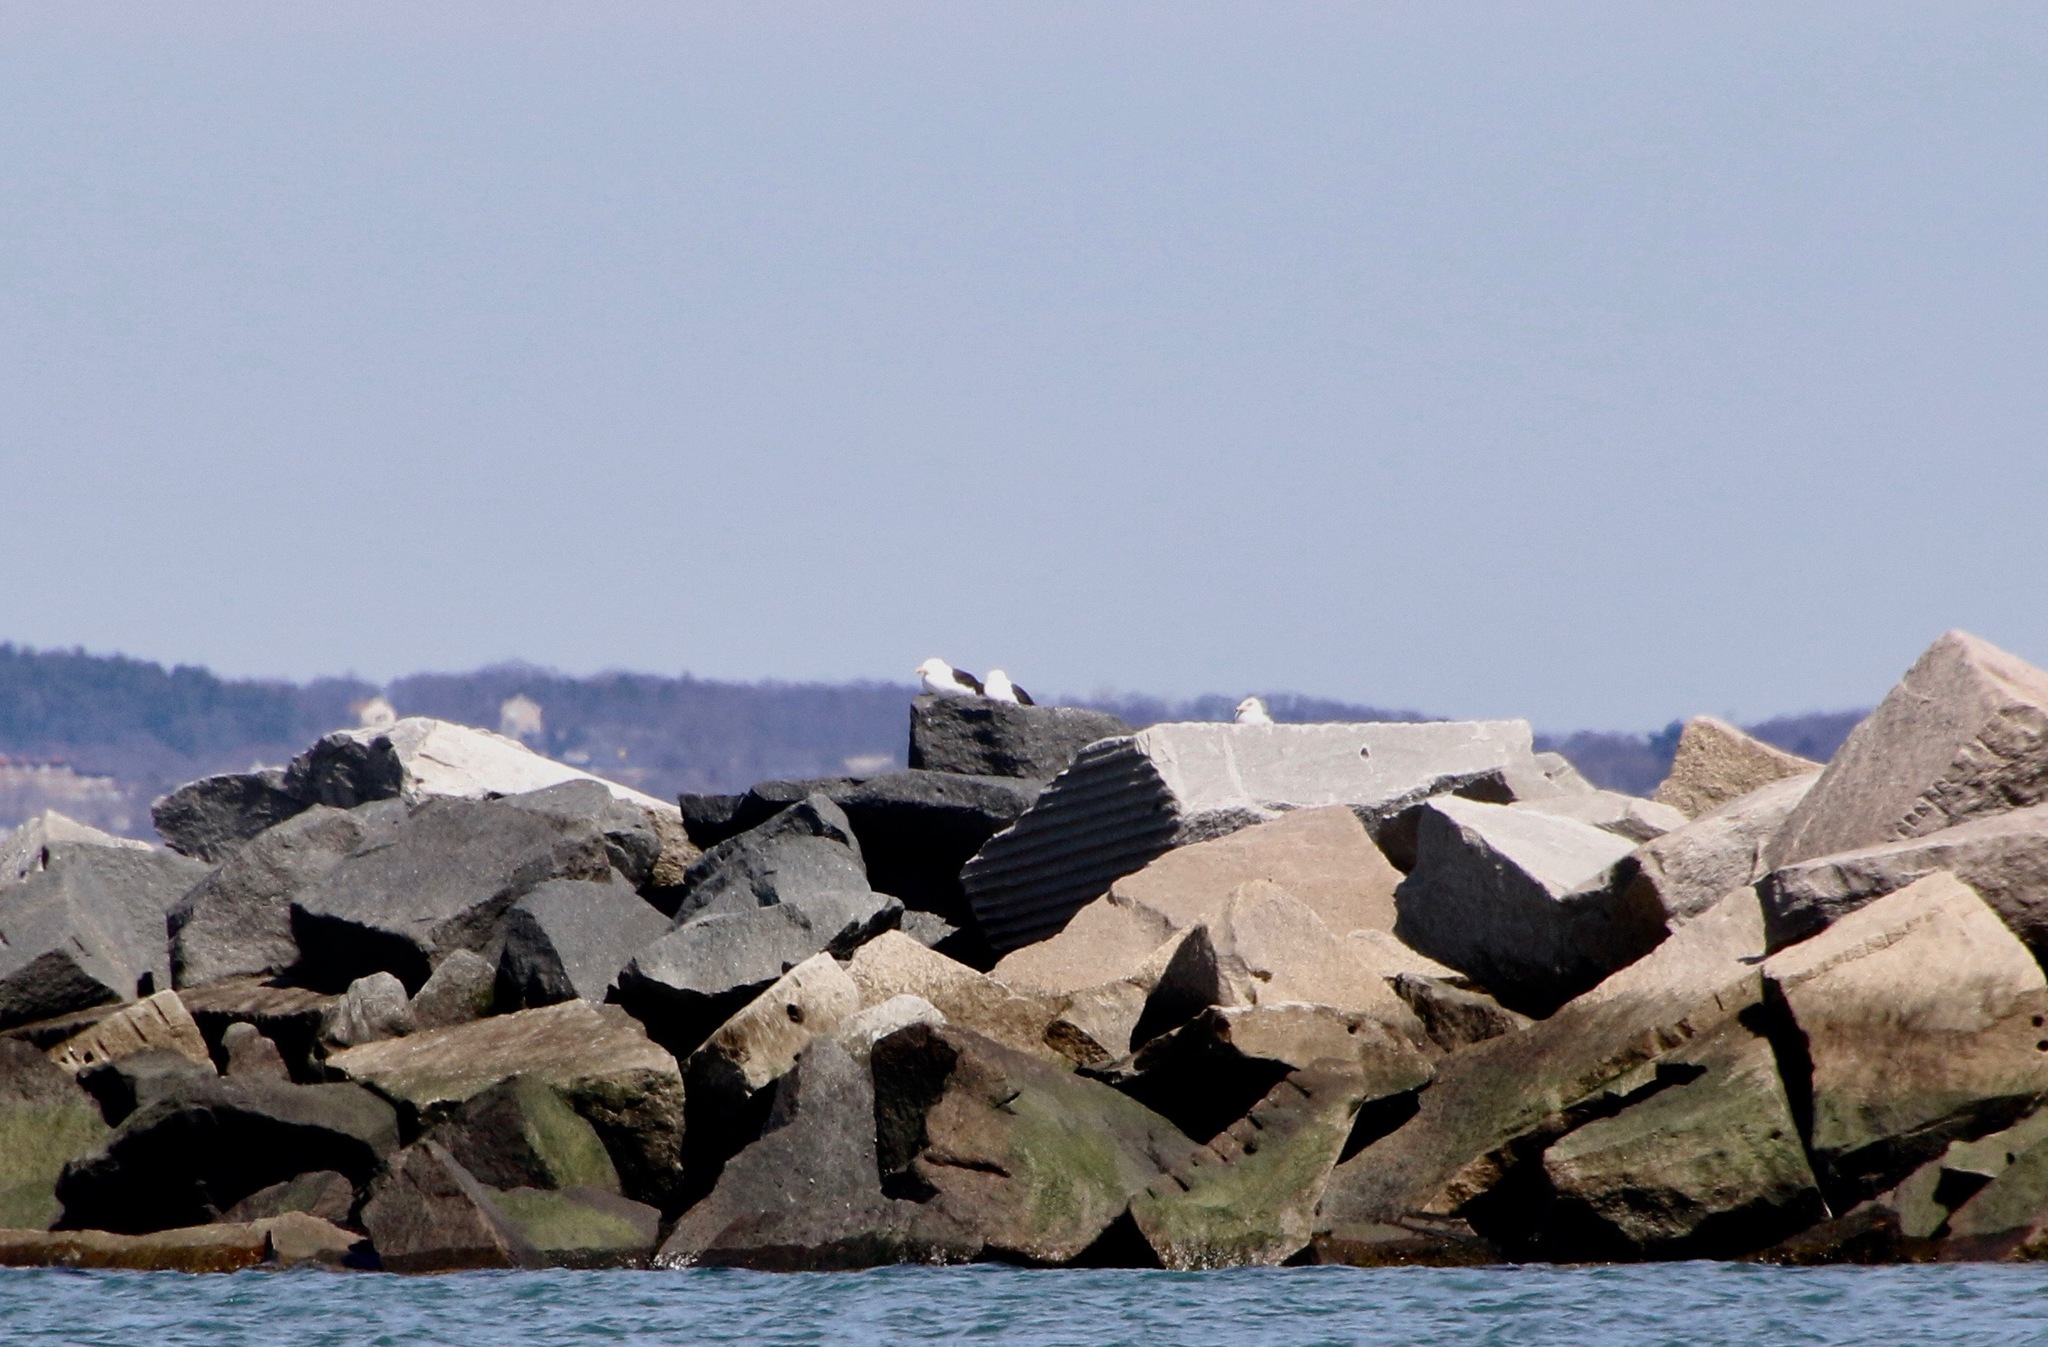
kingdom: Animalia
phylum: Chordata
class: Aves
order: Charadriiformes
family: Laridae
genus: Larus
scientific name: Larus marinus
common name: Great black-backed gull
